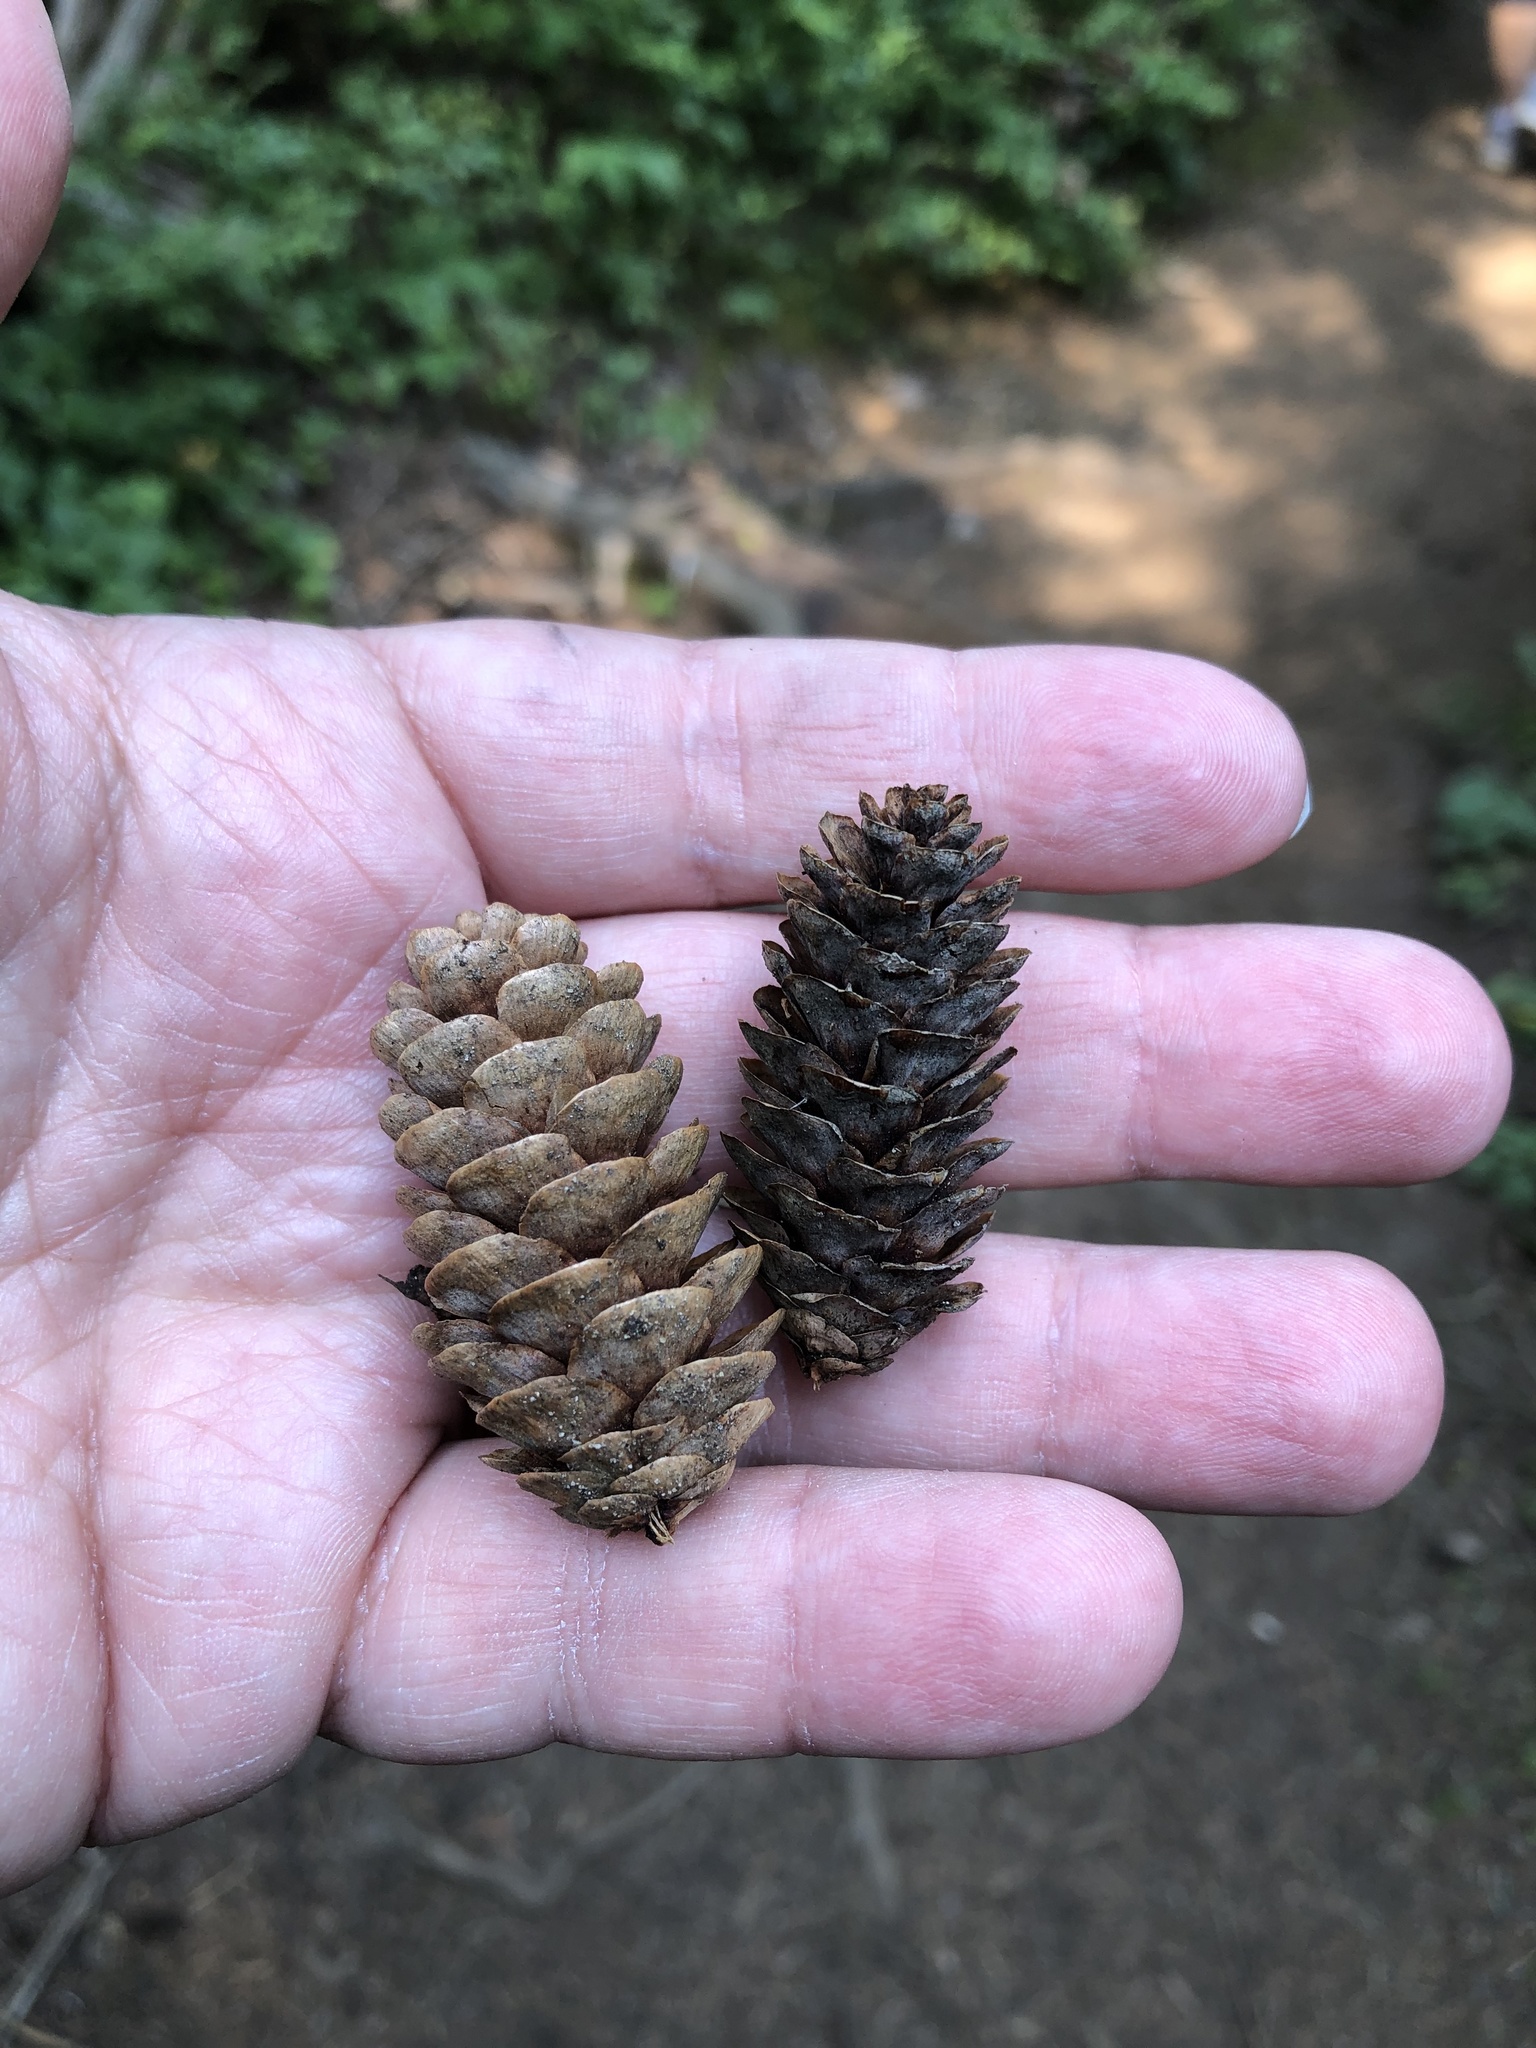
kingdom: Plantae
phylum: Tracheophyta
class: Pinopsida
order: Pinales
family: Pinaceae
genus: Picea
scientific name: Picea glauca
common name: White spruce
